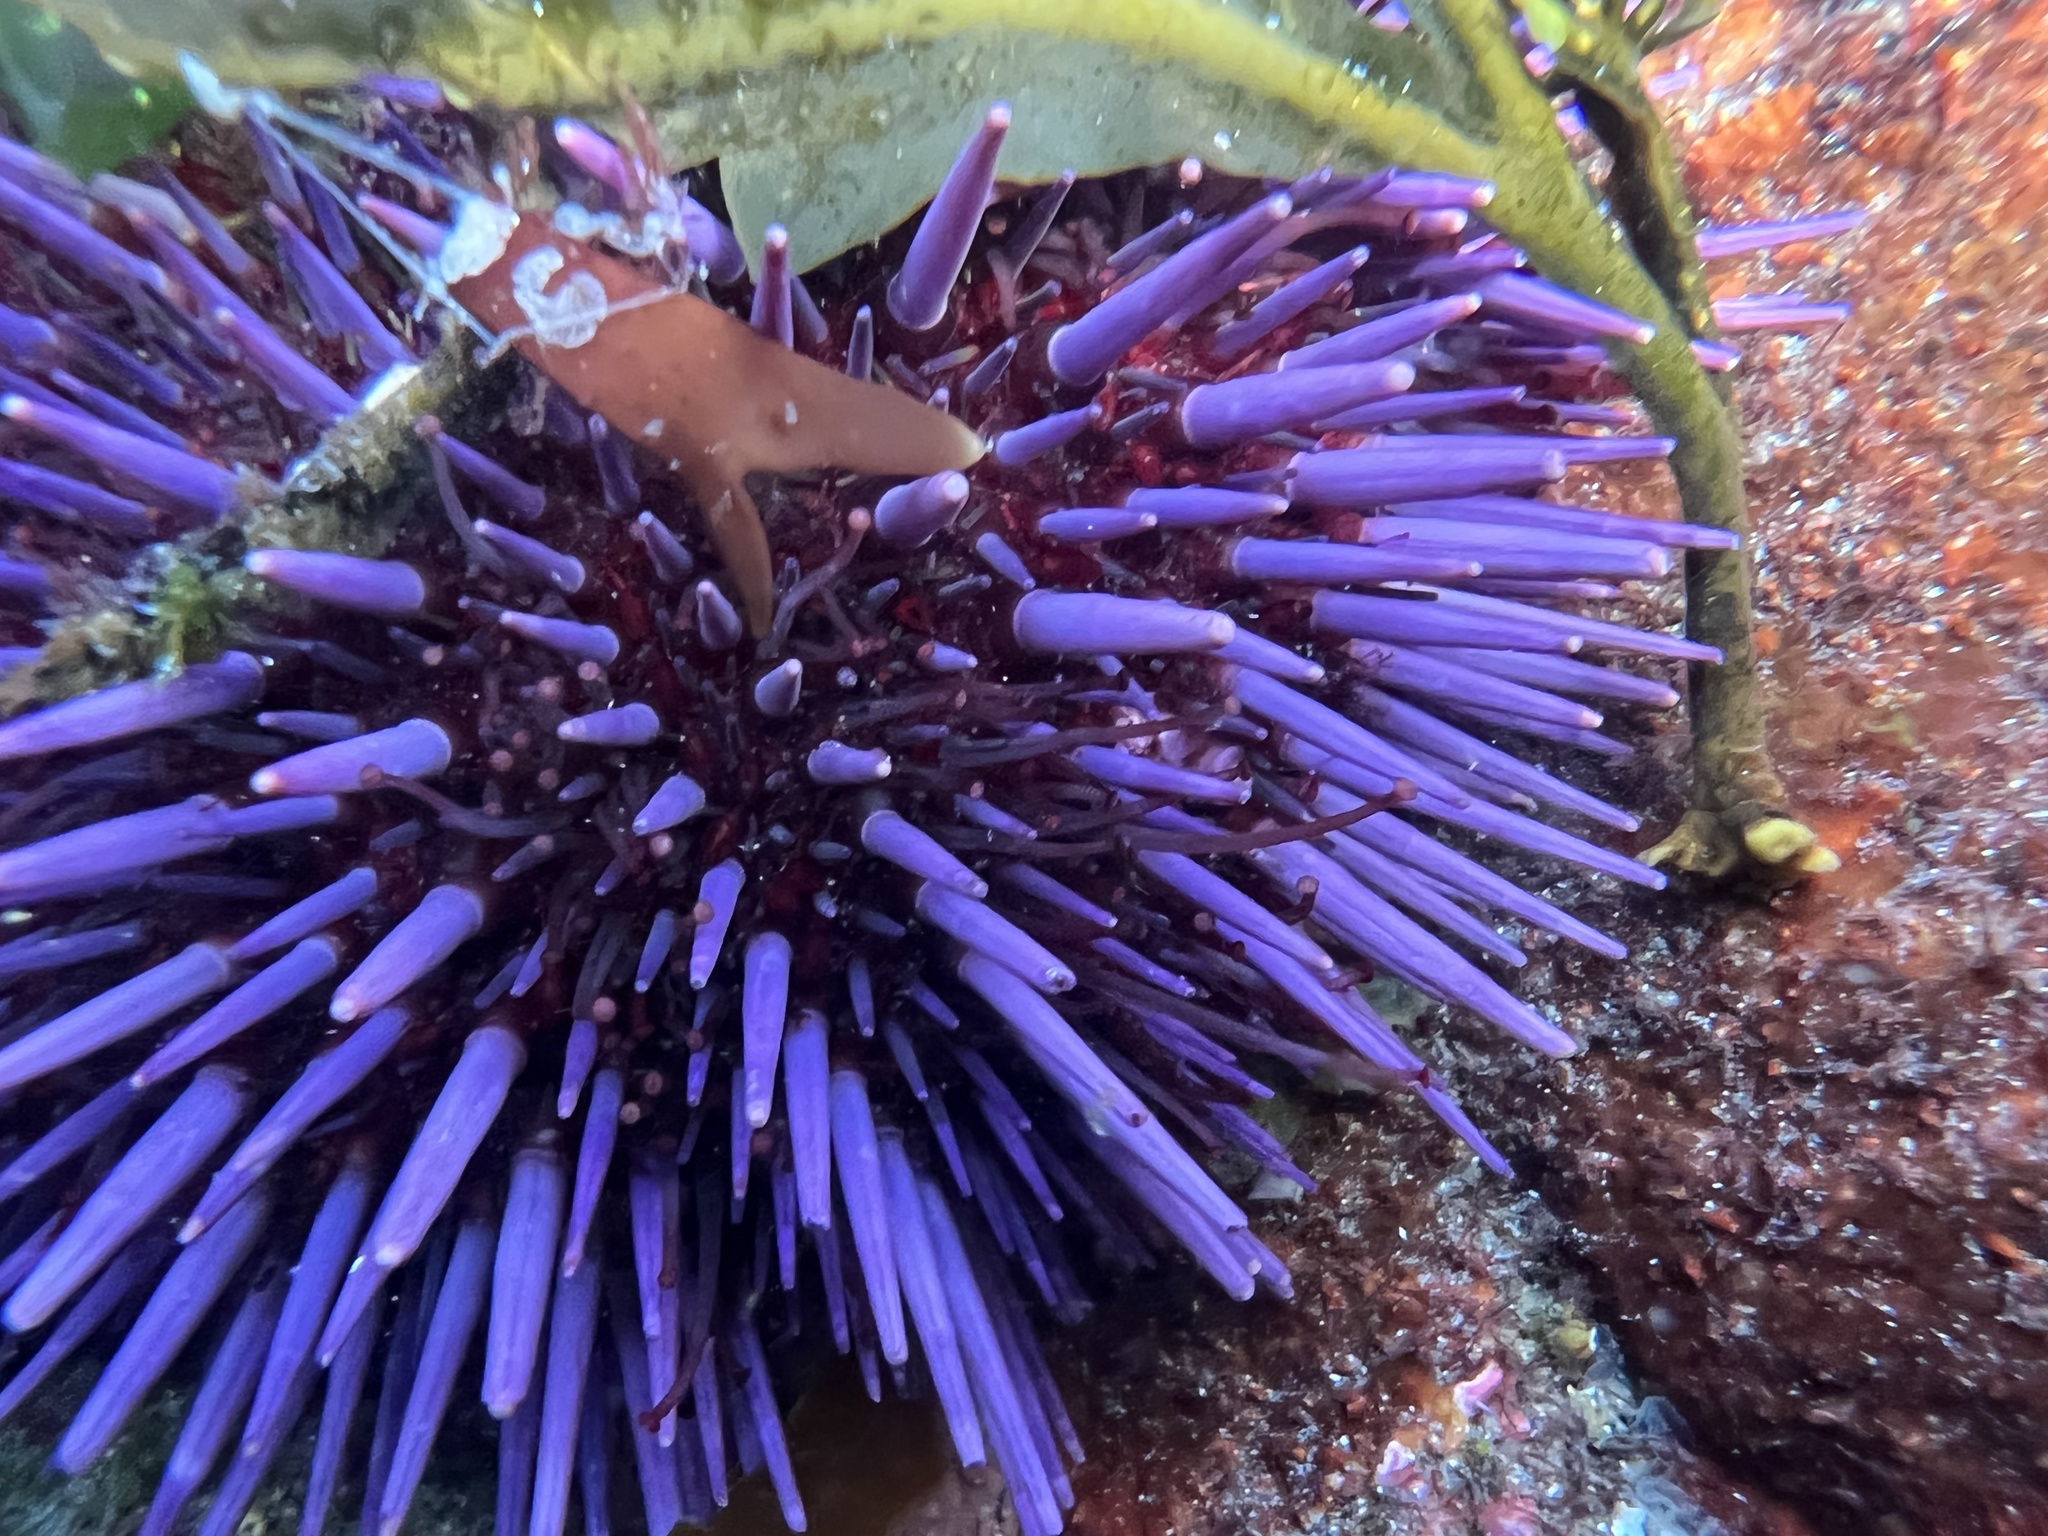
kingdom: Animalia
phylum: Echinodermata
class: Echinoidea
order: Camarodonta
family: Strongylocentrotidae
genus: Strongylocentrotus
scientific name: Strongylocentrotus purpuratus
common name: Purple sea urchin
